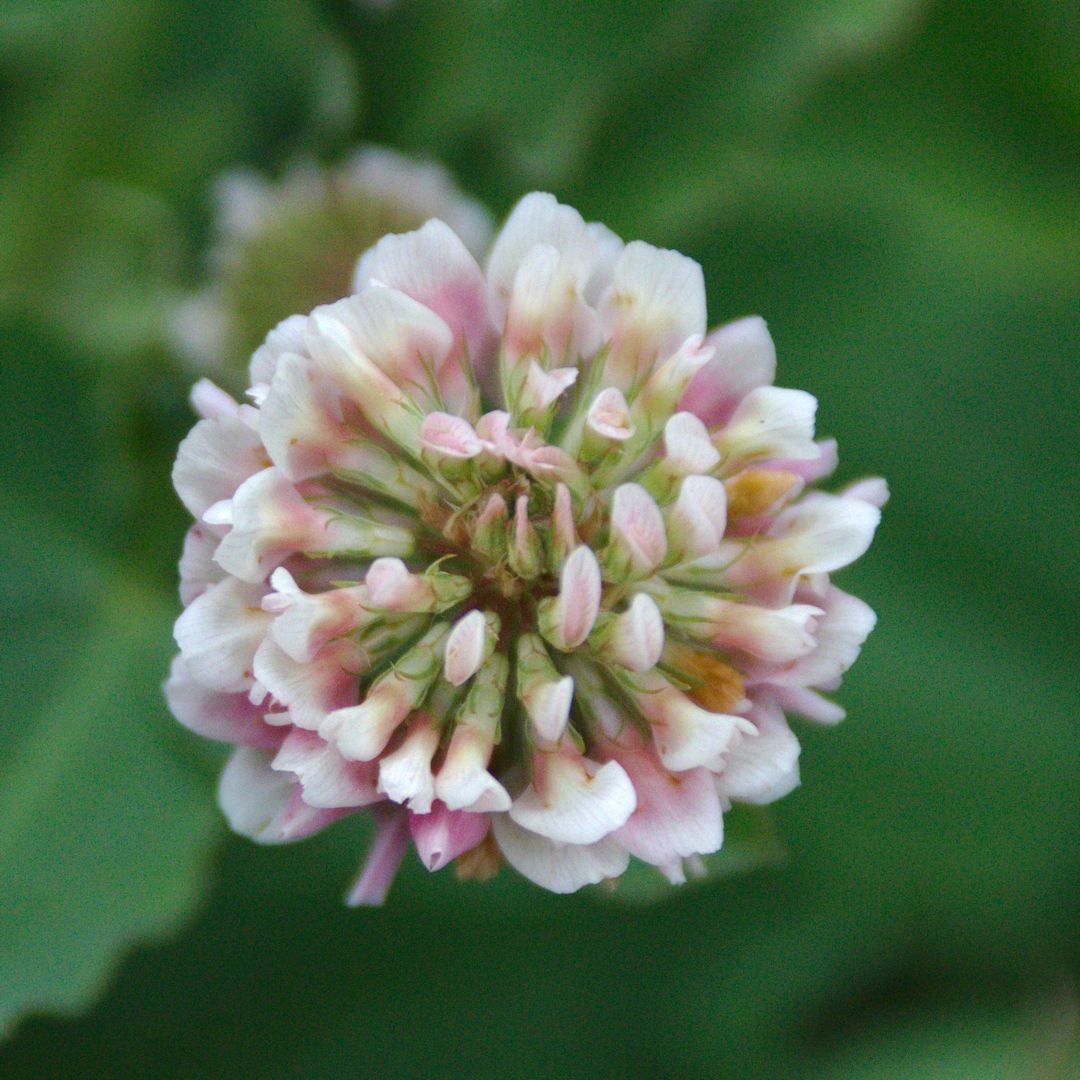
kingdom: Plantae
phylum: Tracheophyta
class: Magnoliopsida
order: Fabales
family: Fabaceae
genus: Trifolium
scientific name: Trifolium hybridum
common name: Alsike clover
